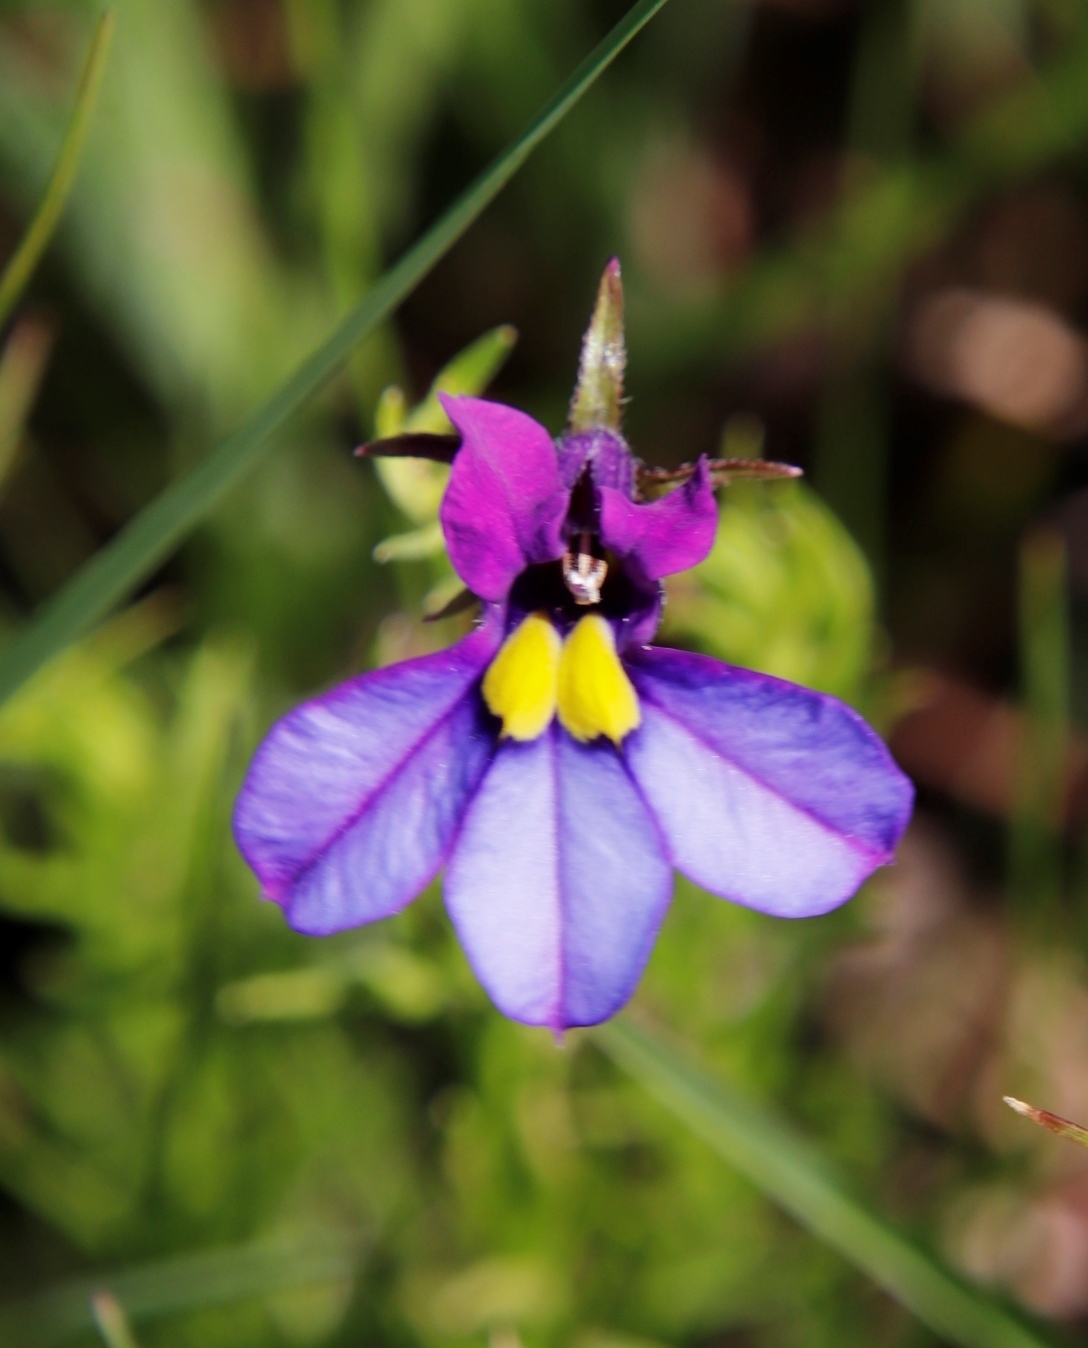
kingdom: Plantae
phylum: Tracheophyta
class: Magnoliopsida
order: Asterales
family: Campanulaceae
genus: Monopsis
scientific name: Monopsis decipiens
